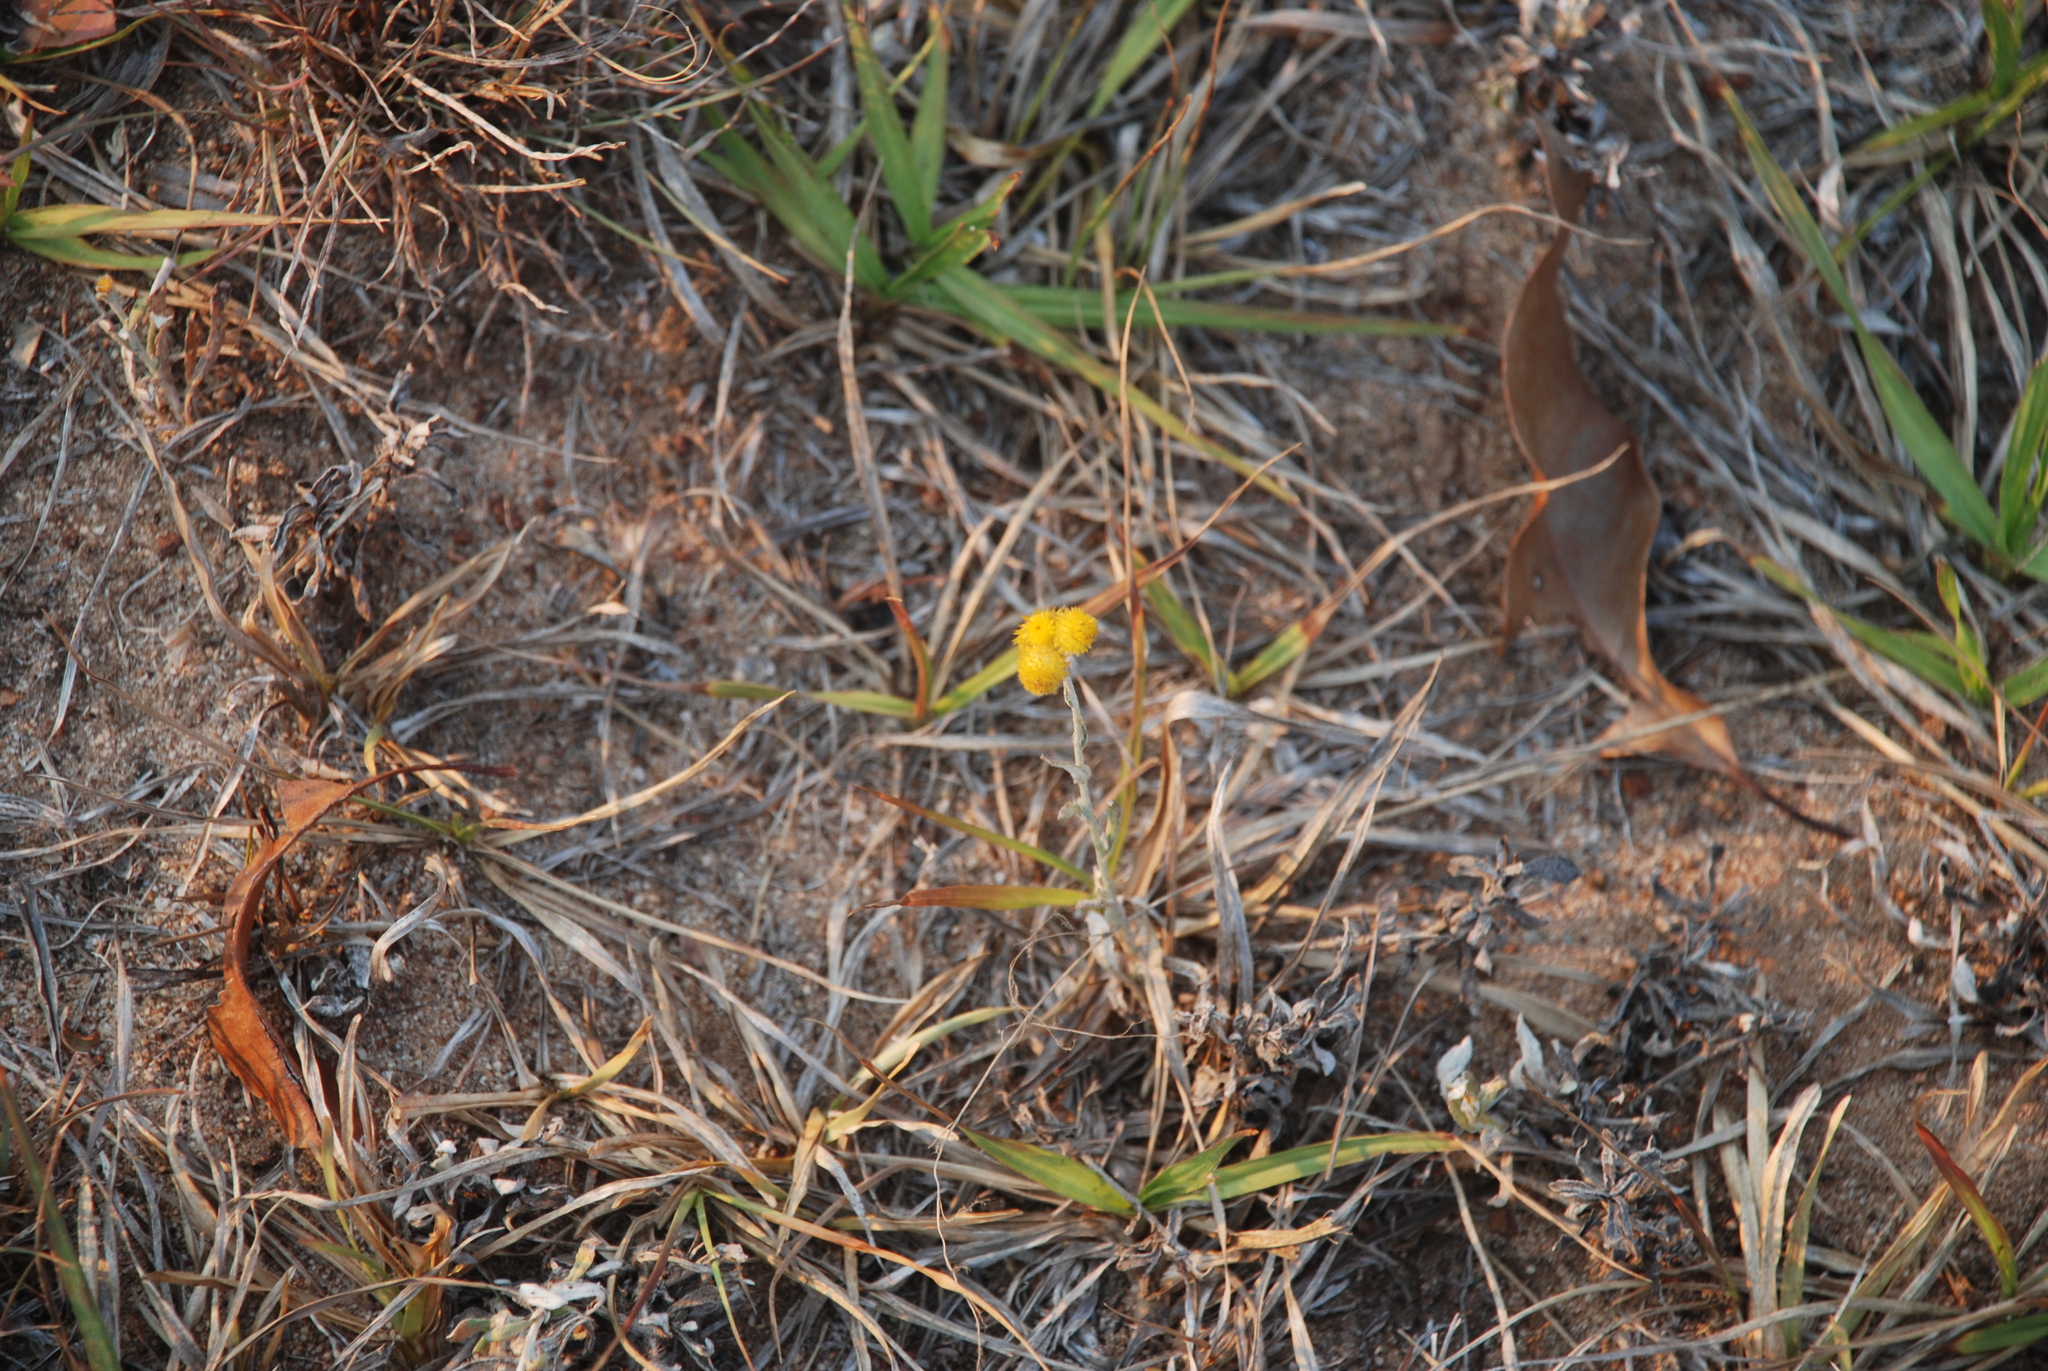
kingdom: Plantae
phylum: Tracheophyta
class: Magnoliopsida
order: Asterales
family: Asteraceae
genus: Chrysocephalum
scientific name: Chrysocephalum apiculatum
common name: Common everlasting
